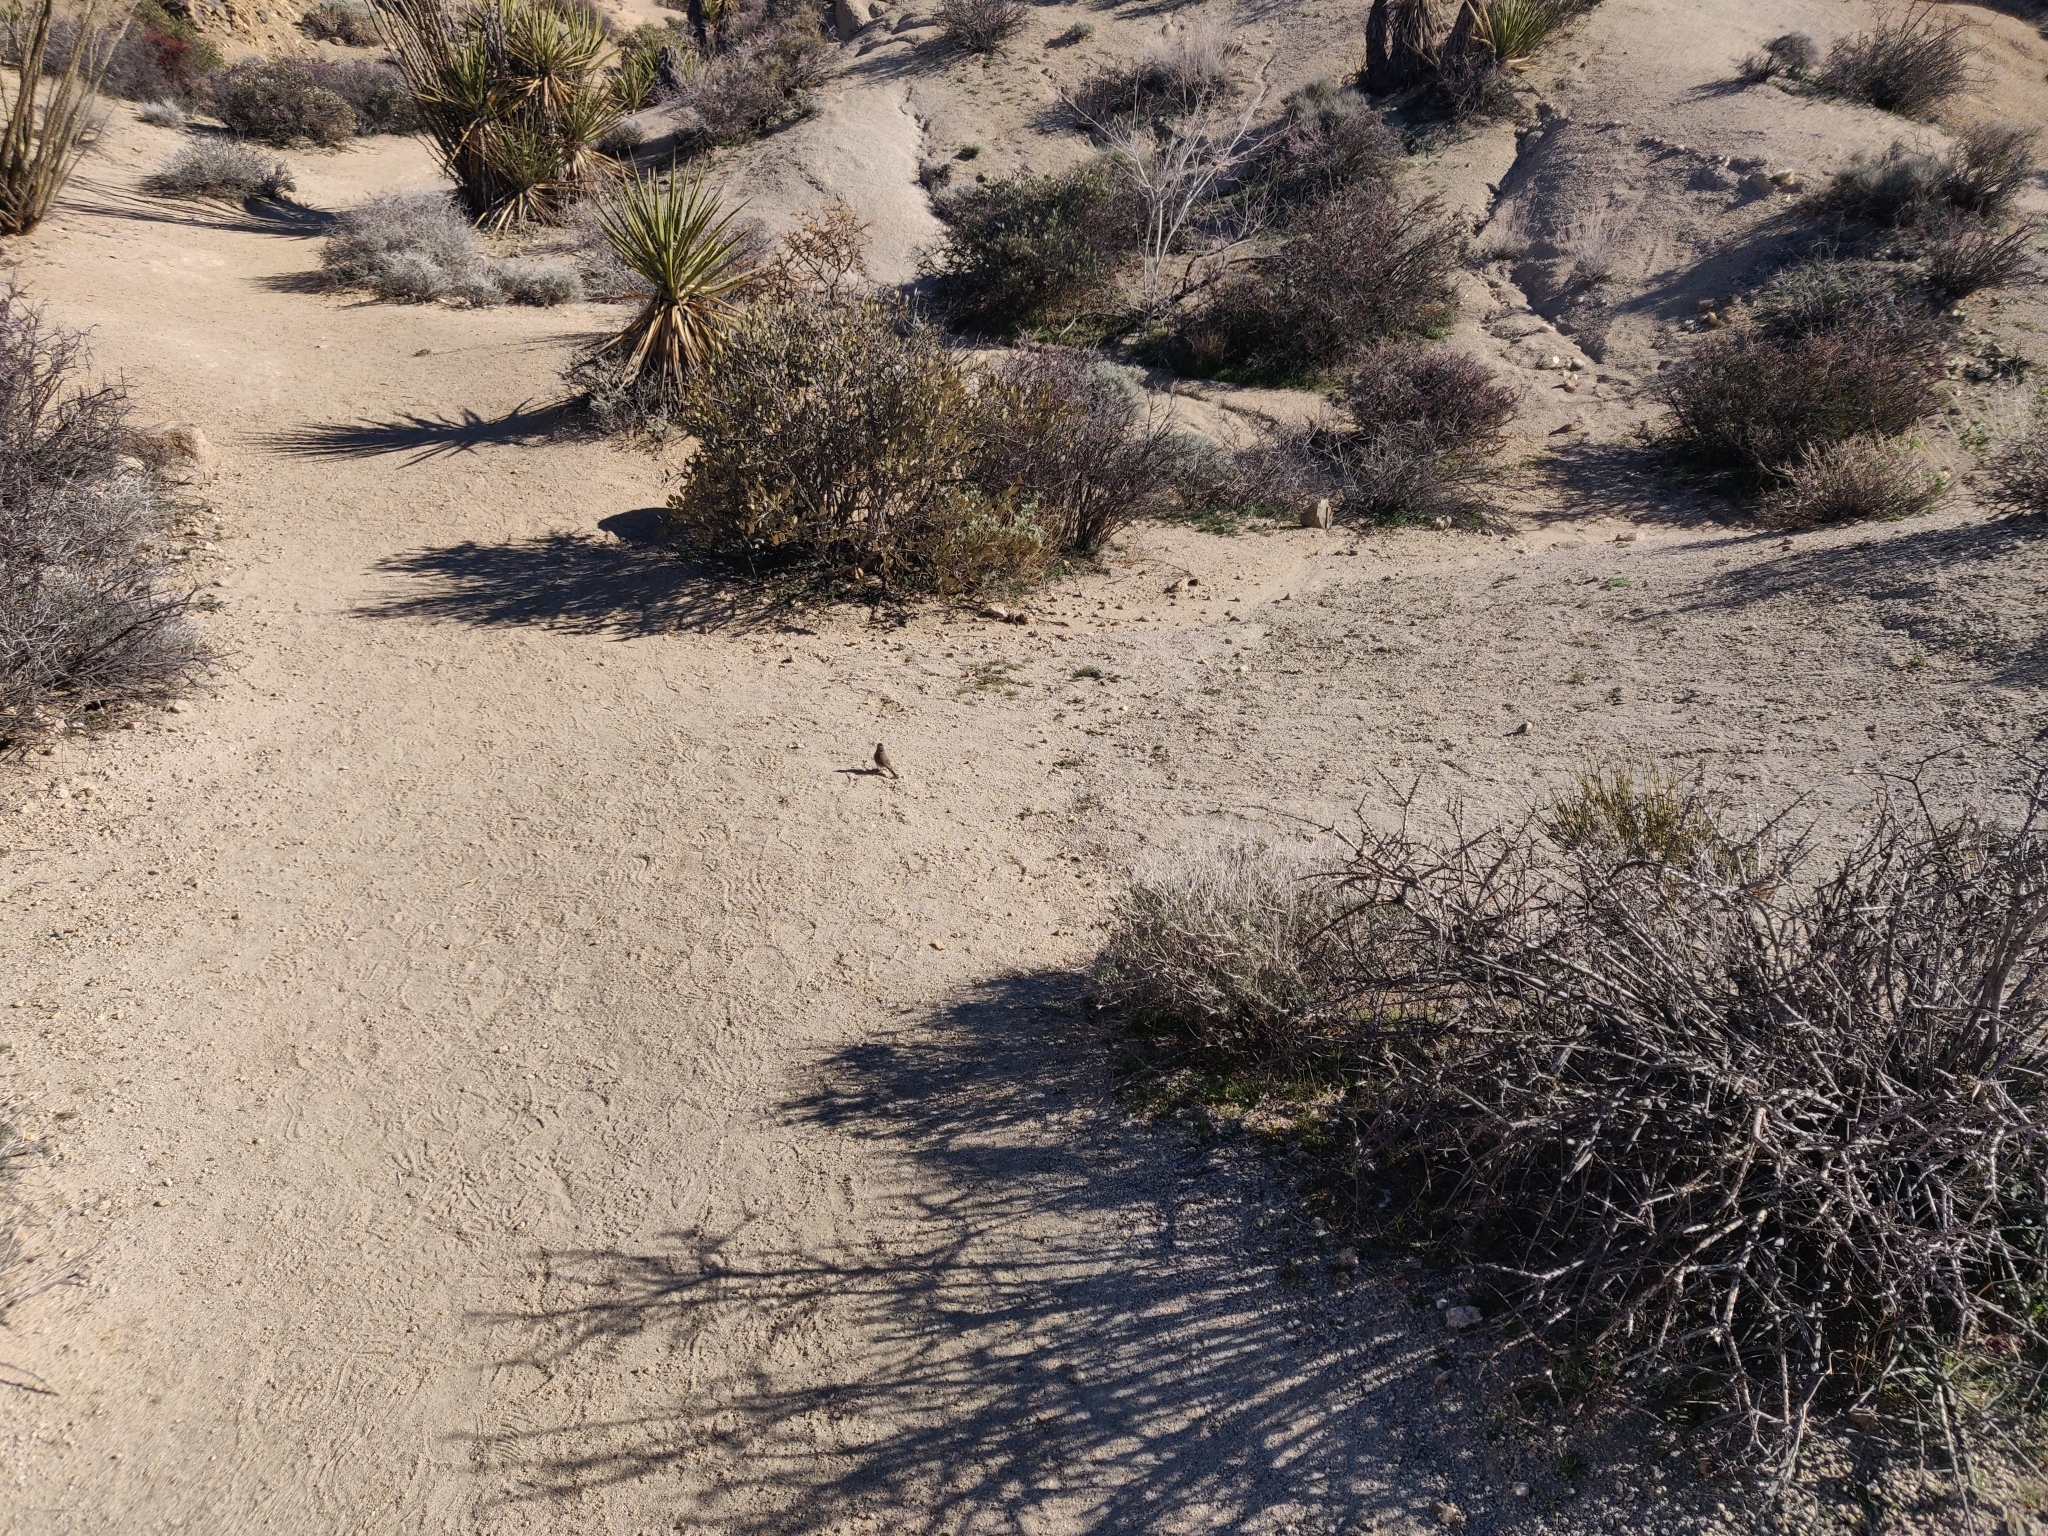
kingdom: Animalia
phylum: Chordata
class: Aves
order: Passeriformes
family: Passerellidae
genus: Amphispiza
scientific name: Amphispiza bilineata
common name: Black-throated sparrow
